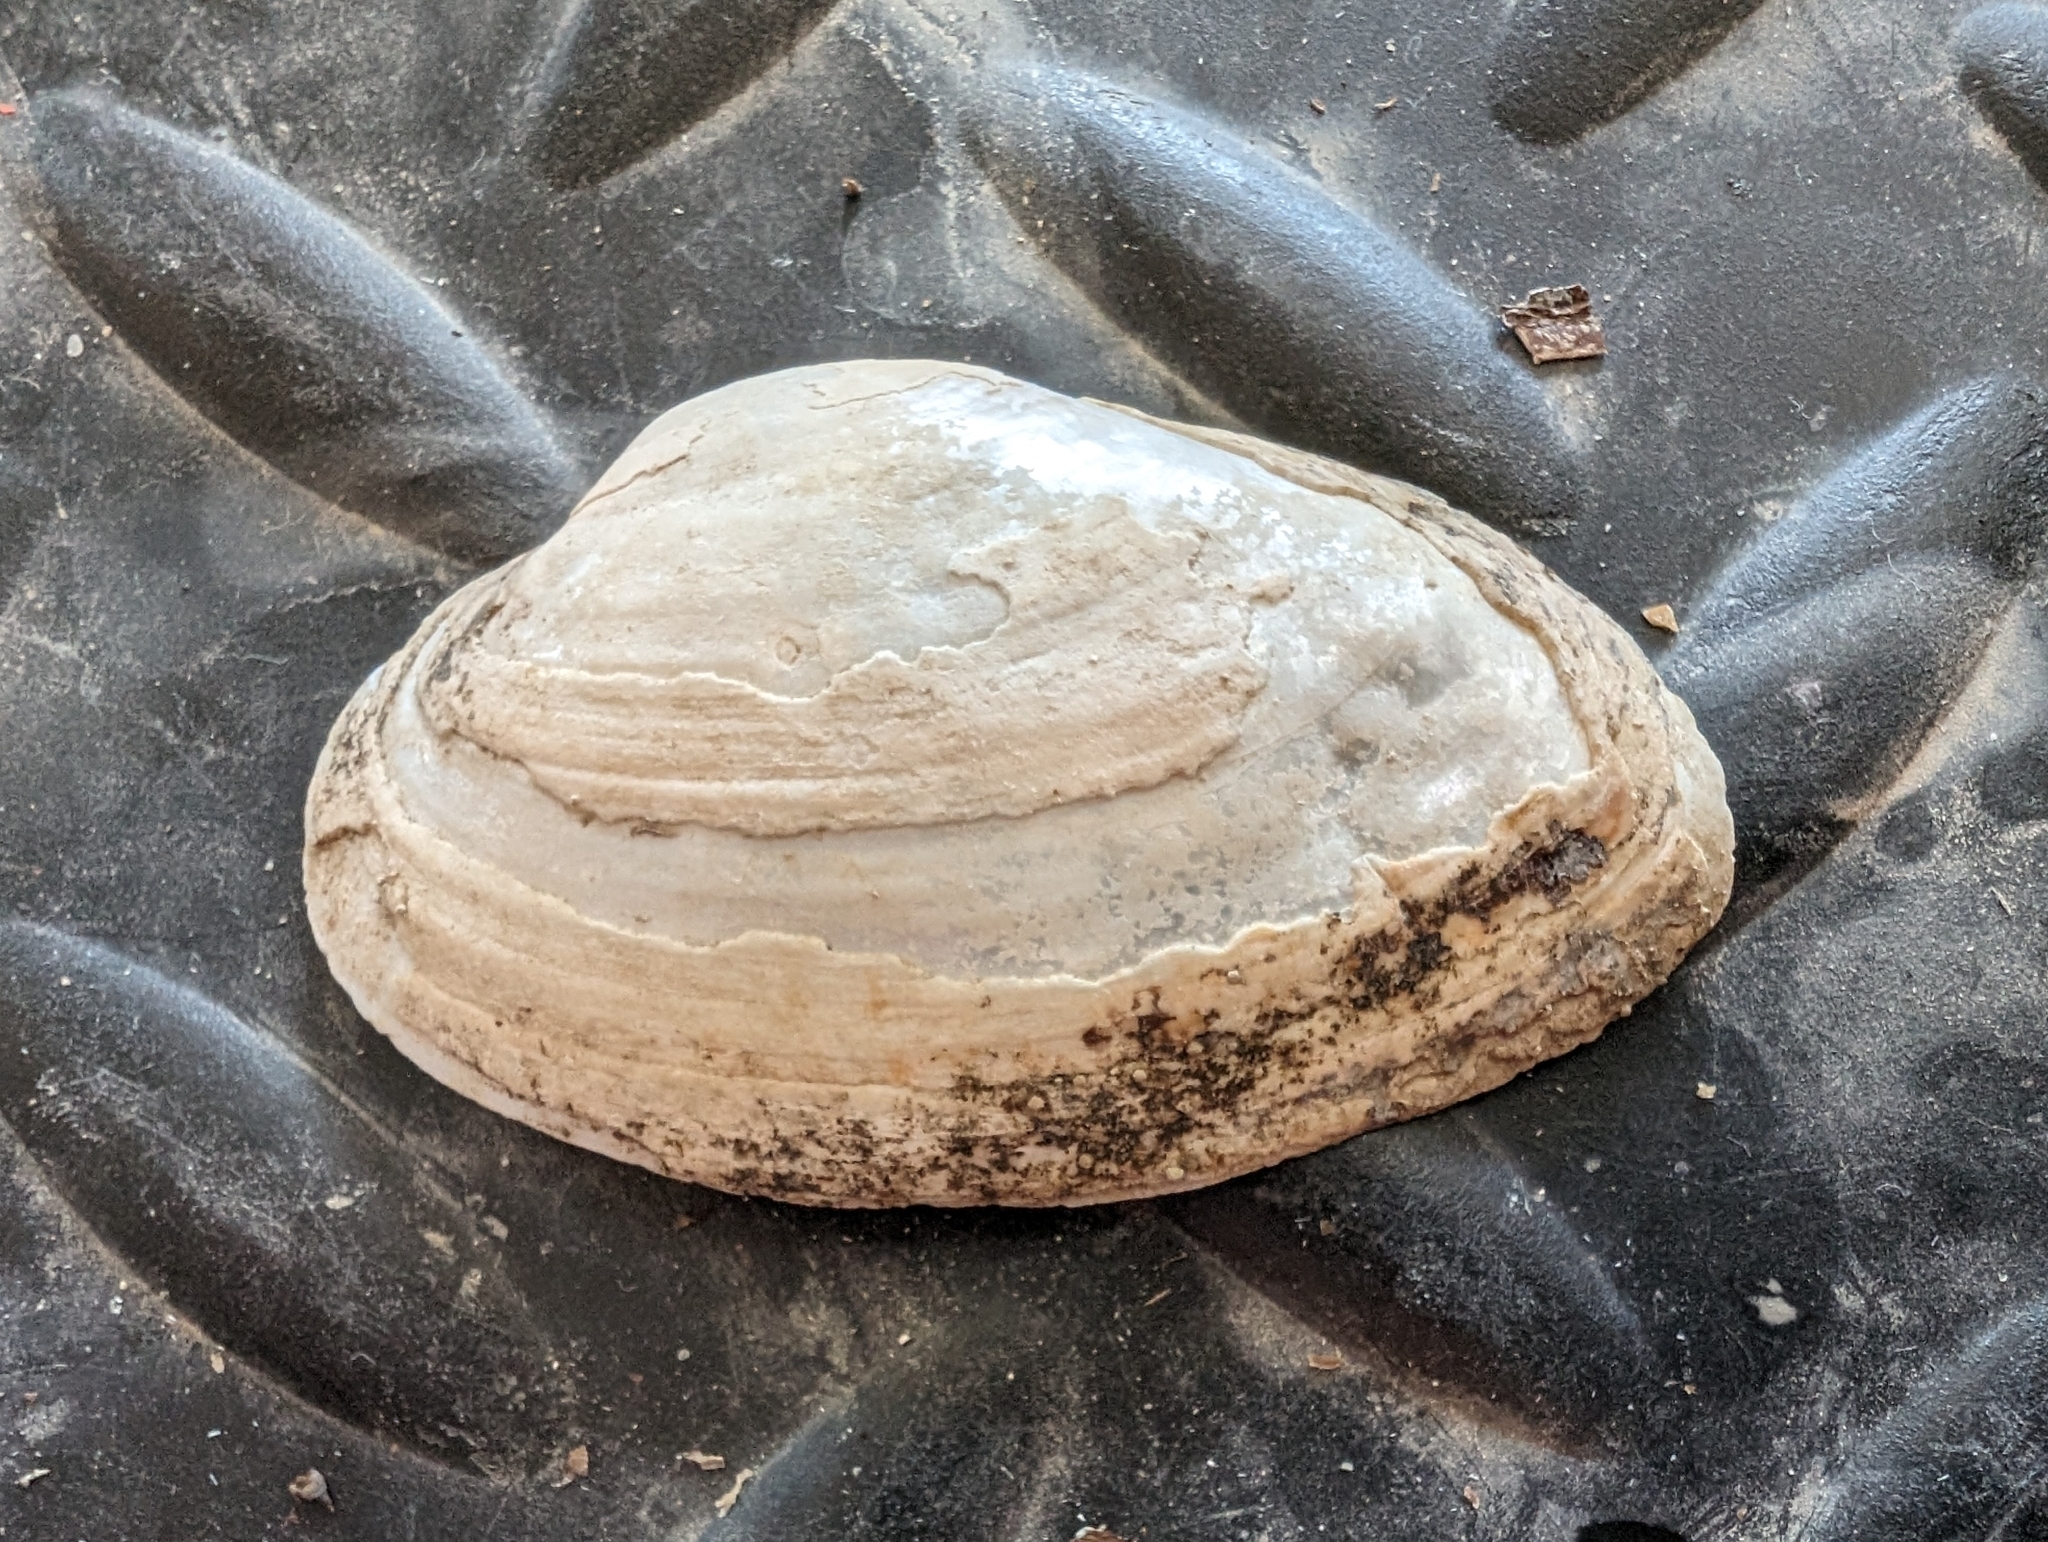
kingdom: Animalia
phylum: Mollusca
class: Bivalvia
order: Unionida
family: Unionidae
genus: Strophitus
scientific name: Strophitus undulatus
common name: Creeper
